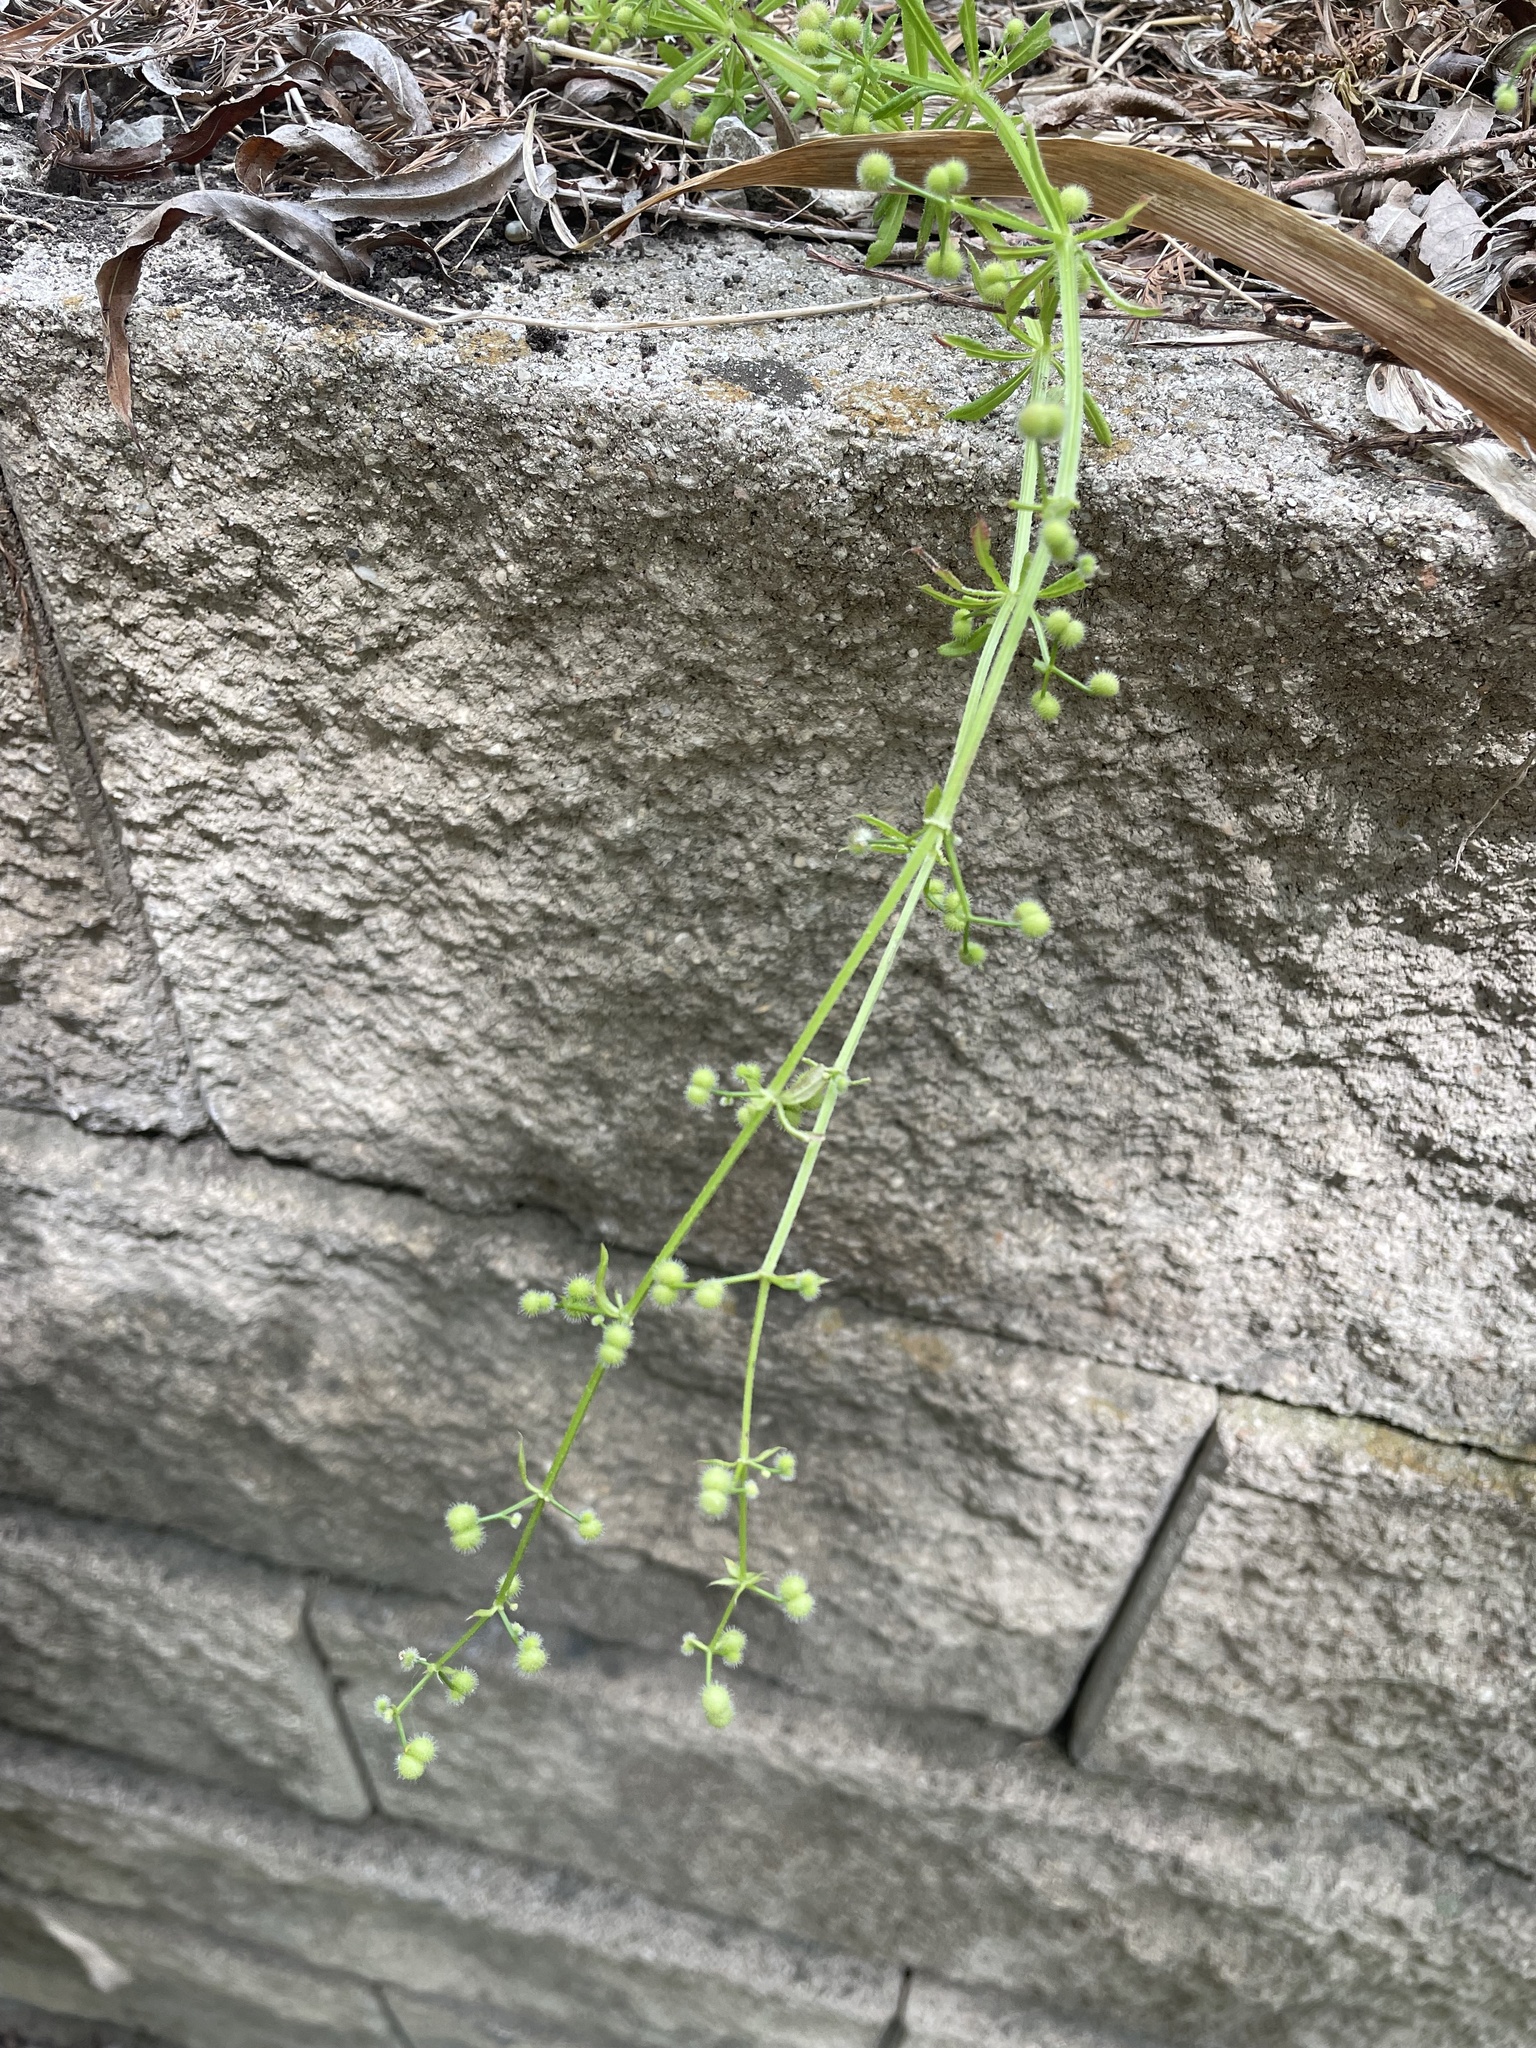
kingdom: Plantae
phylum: Tracheophyta
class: Magnoliopsida
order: Gentianales
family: Rubiaceae
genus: Galium
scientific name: Galium aparine
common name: Cleavers
